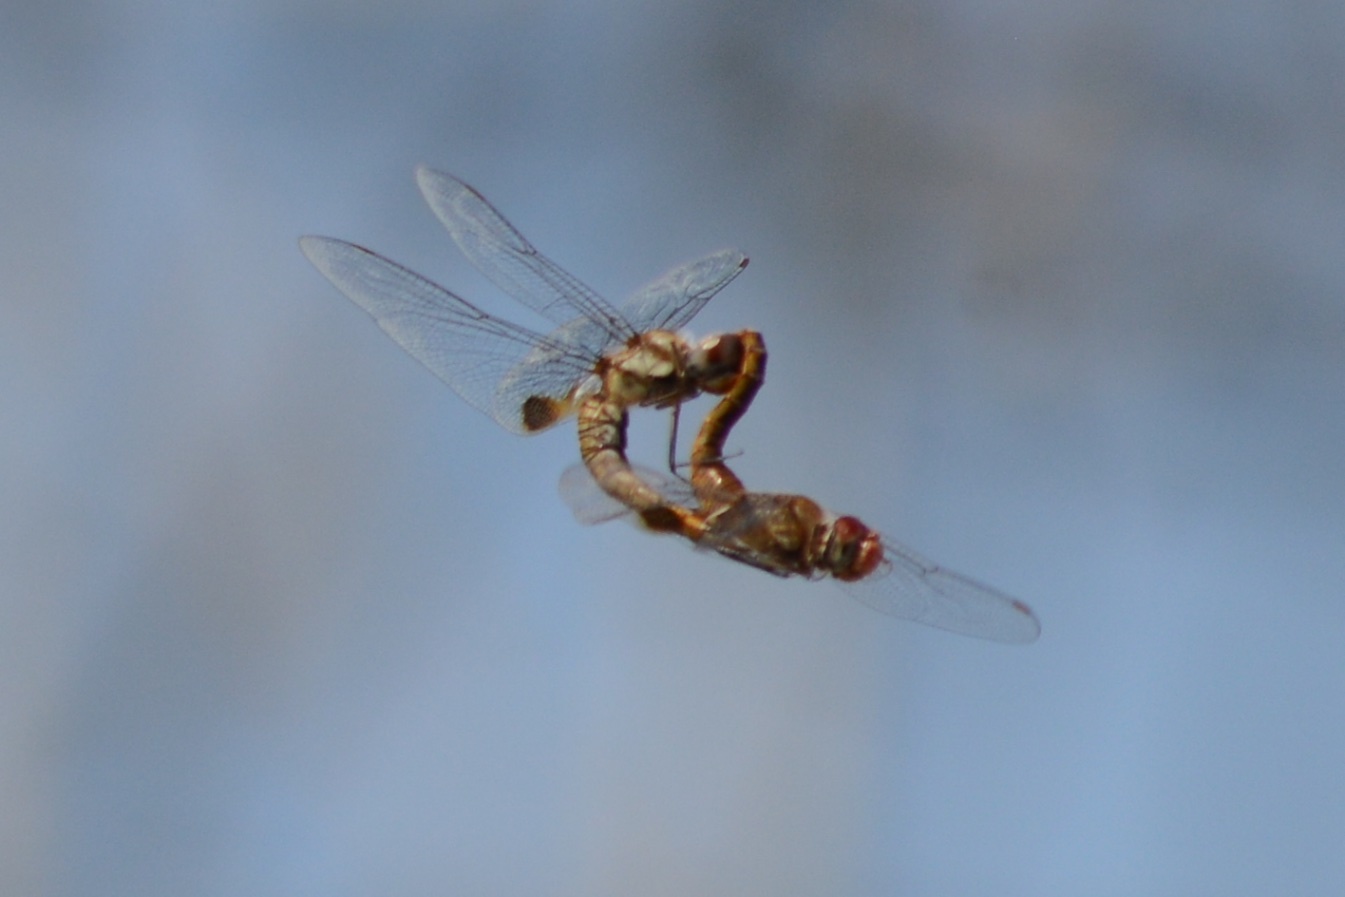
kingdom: Animalia
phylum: Arthropoda
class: Insecta
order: Odonata
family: Libellulidae
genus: Pantala
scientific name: Pantala hymenaea
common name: Spot-winged glider
